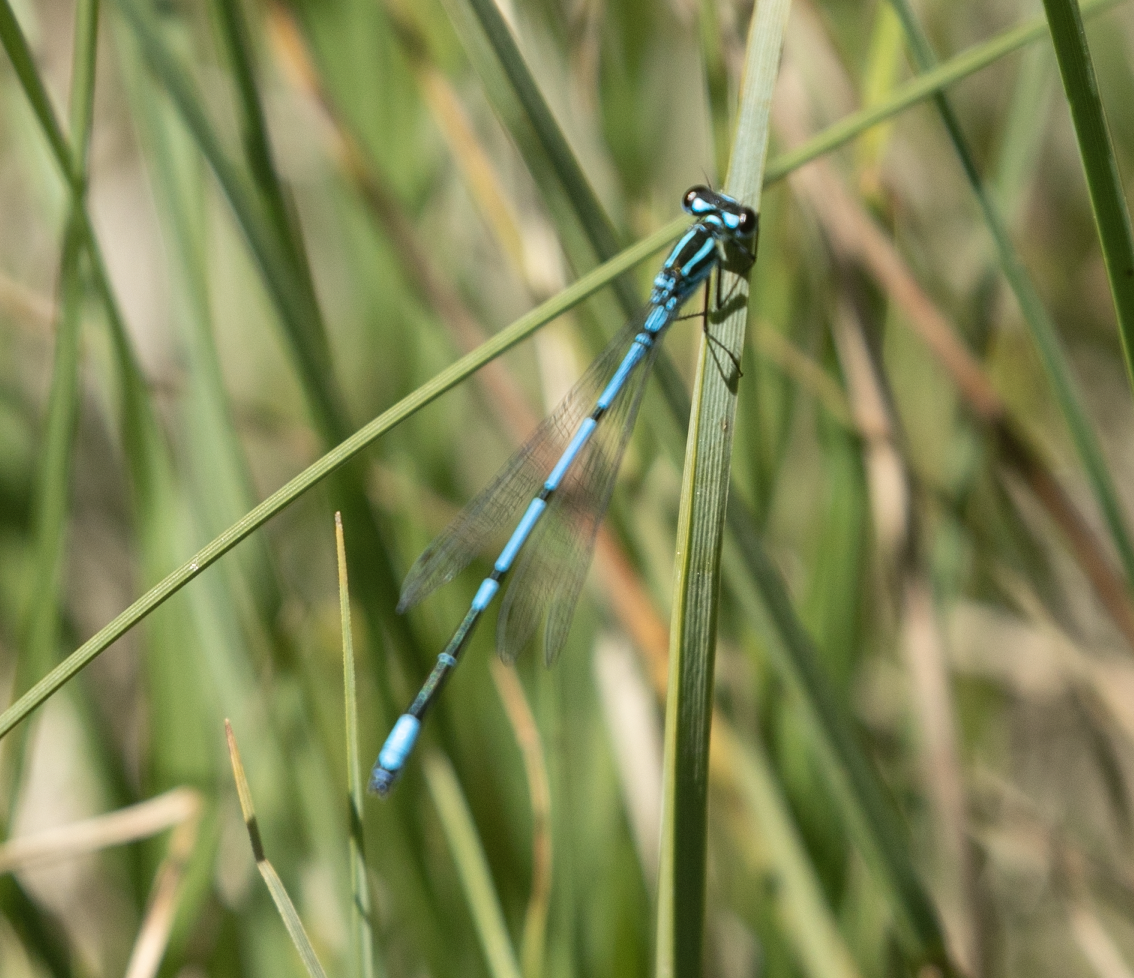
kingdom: Animalia
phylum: Arthropoda
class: Insecta
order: Odonata
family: Coenagrionidae
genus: Coenagrion
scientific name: Coenagrion puella
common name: Azure damselfly
